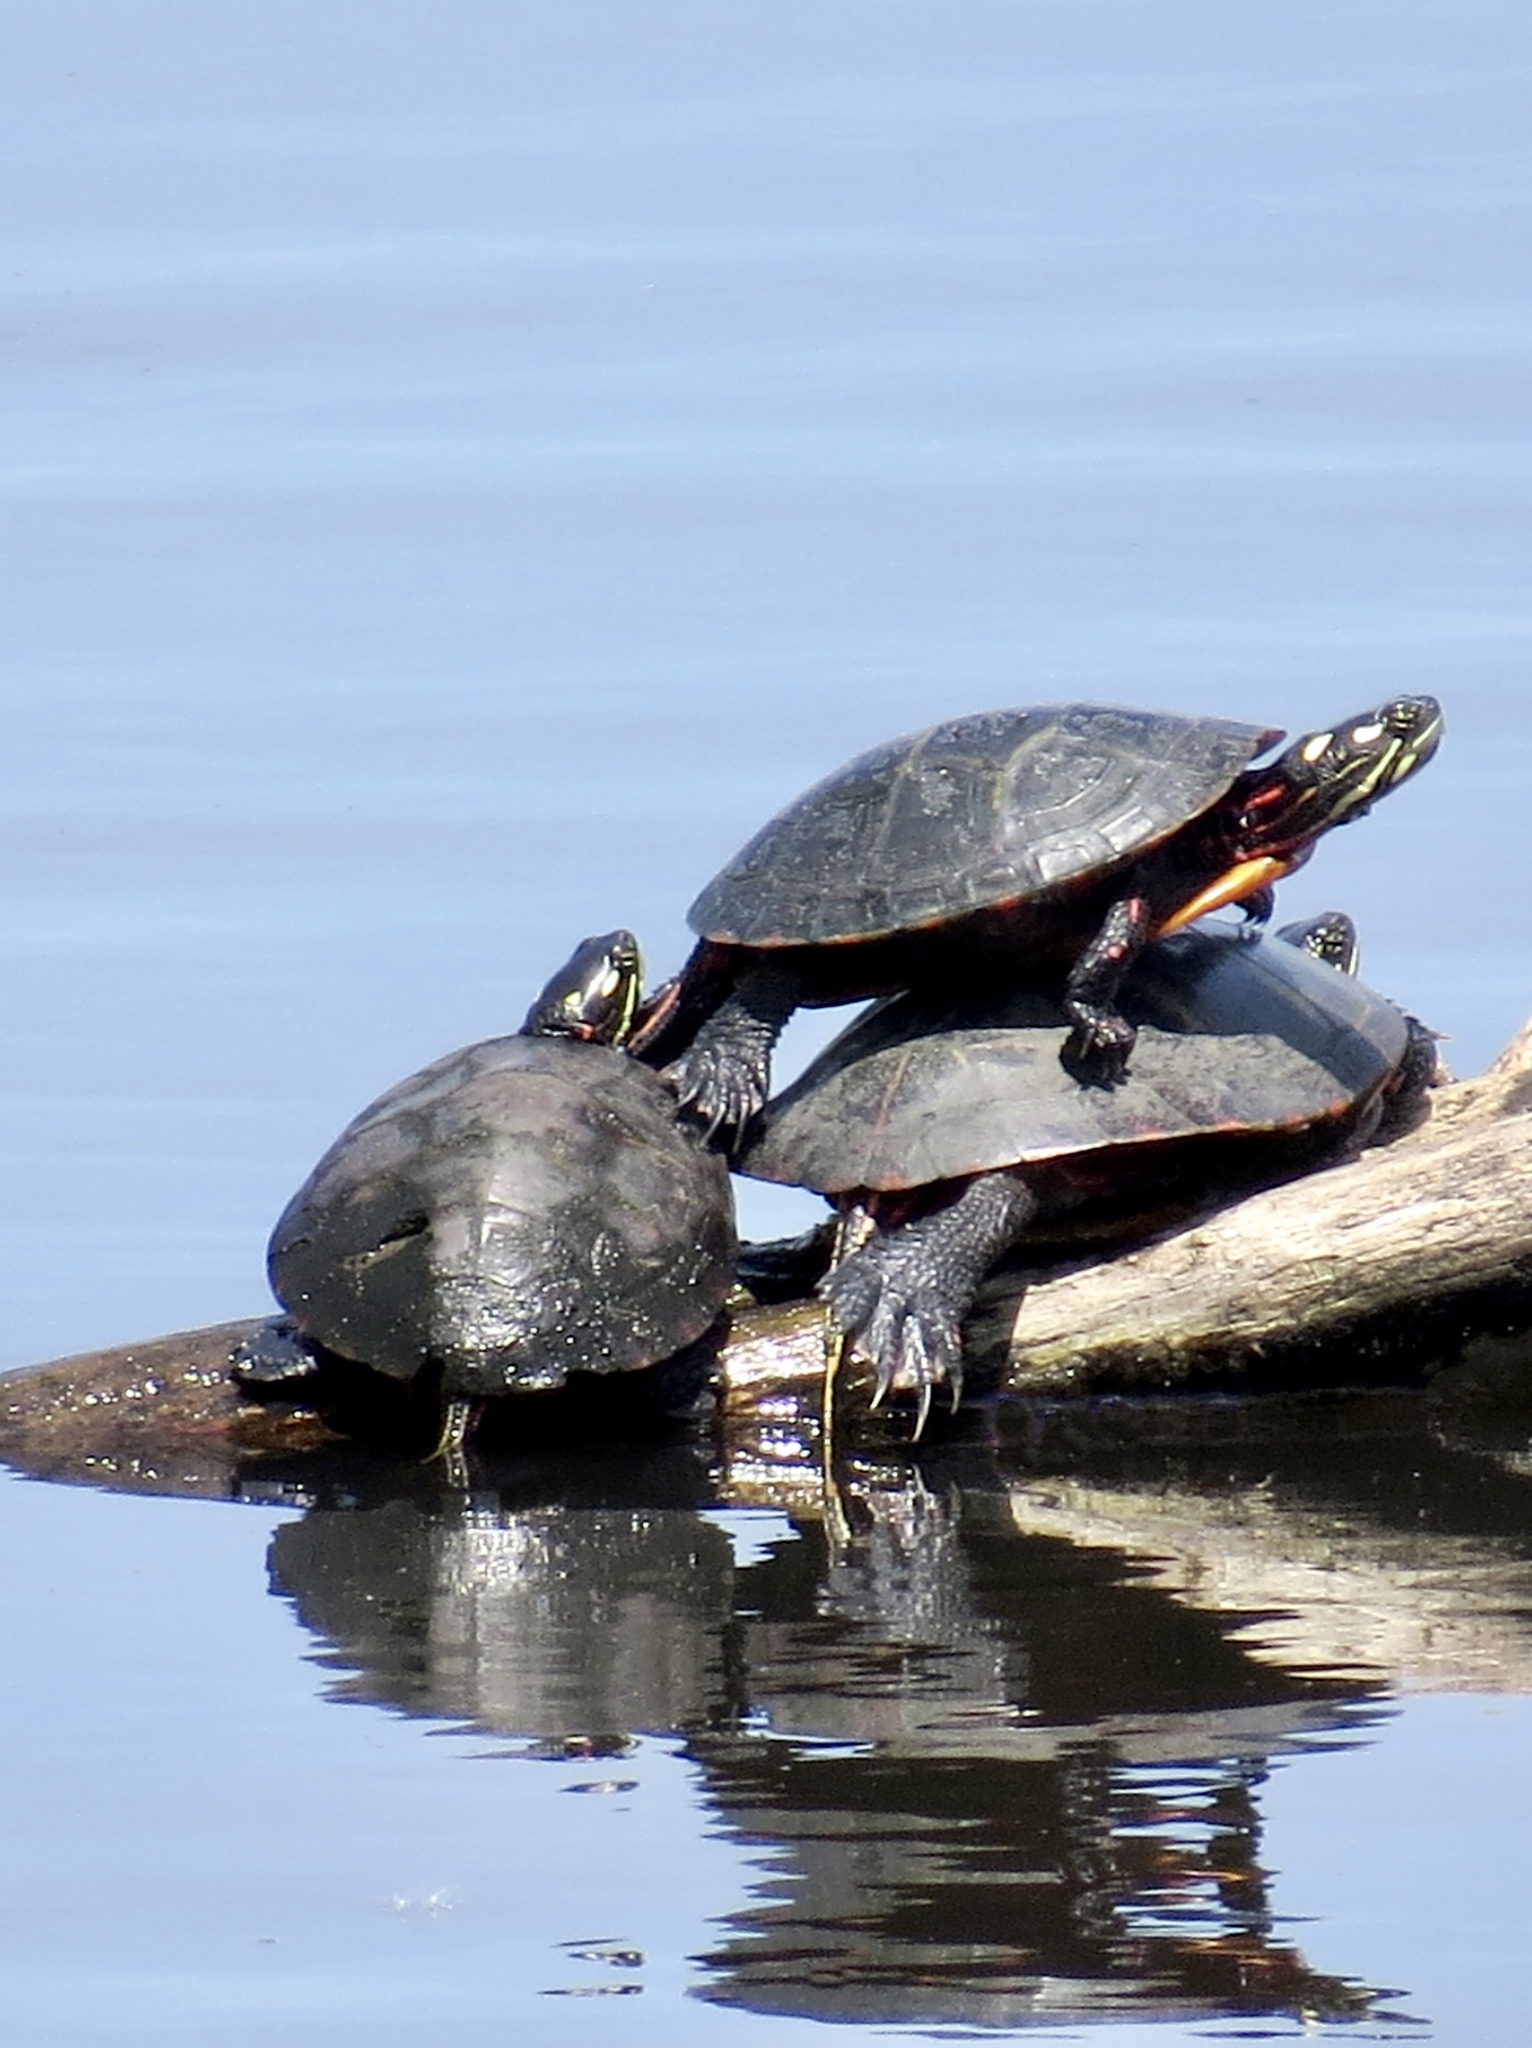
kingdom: Animalia
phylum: Chordata
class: Testudines
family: Emydidae
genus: Chrysemys
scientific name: Chrysemys picta
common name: Painted turtle
